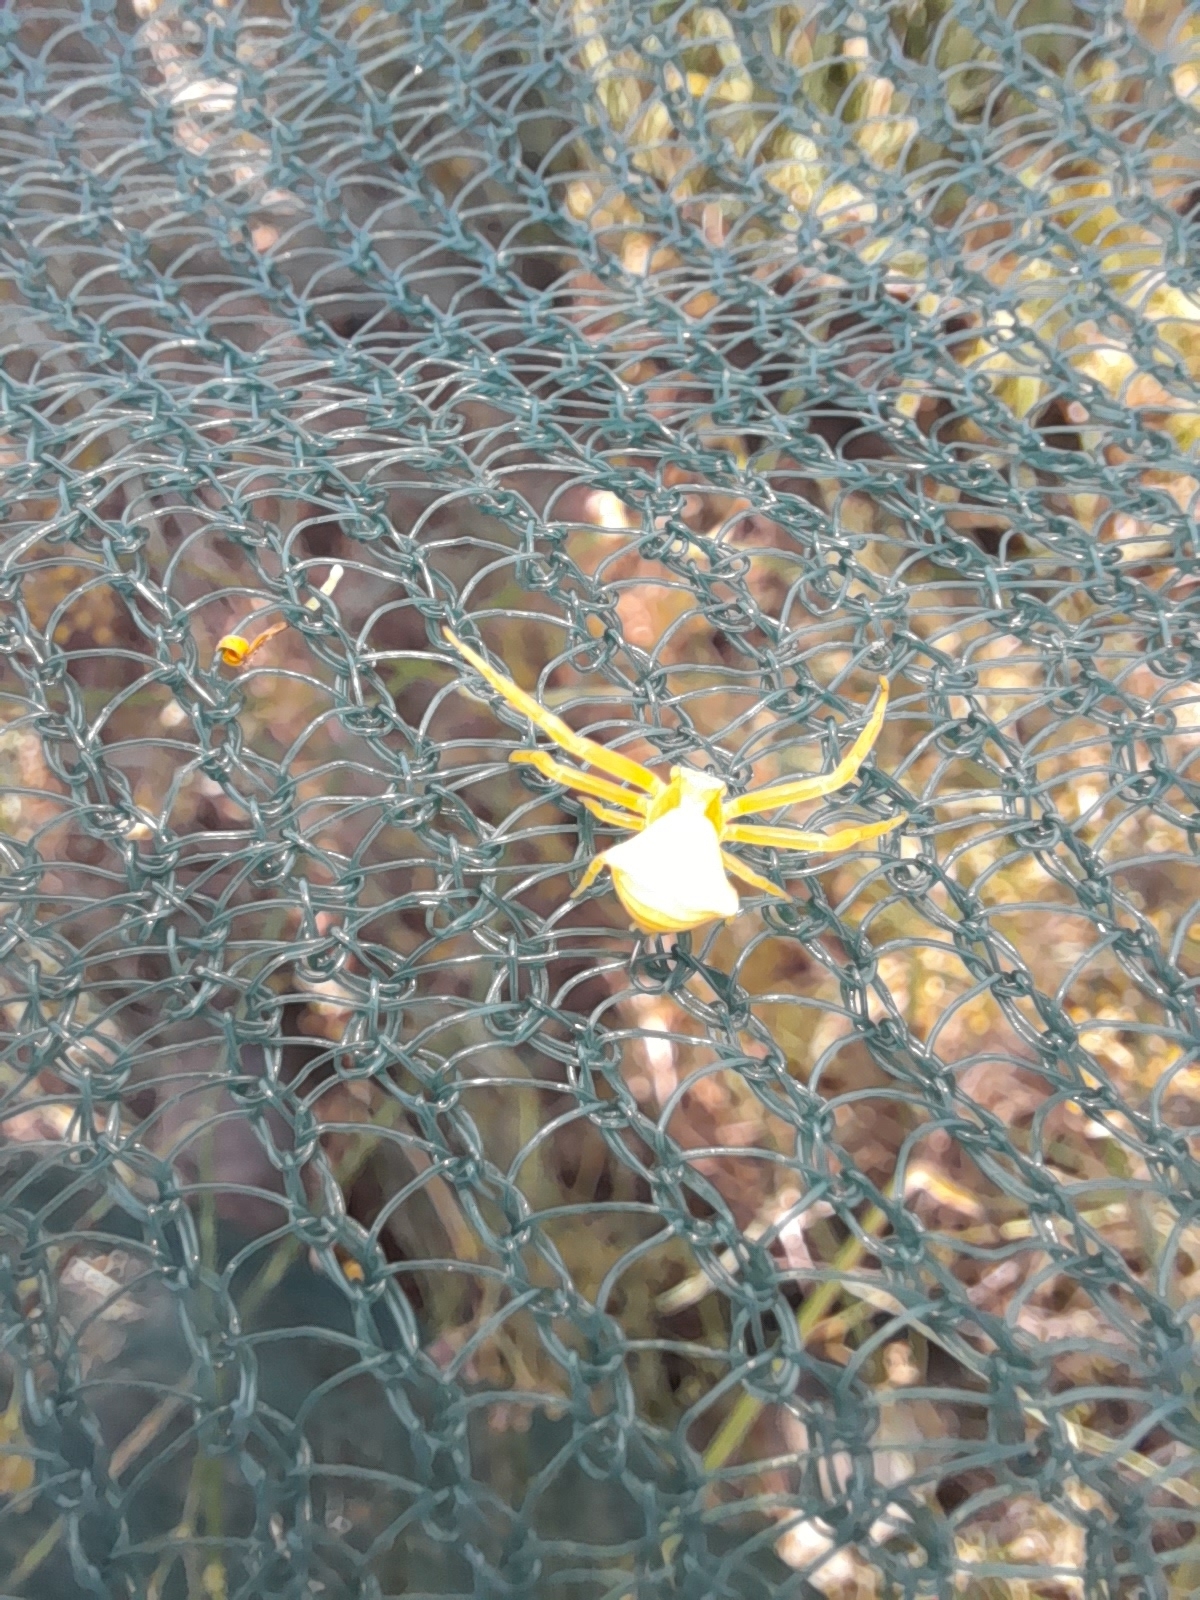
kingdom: Animalia
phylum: Arthropoda
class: Arachnida
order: Araneae
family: Thomisidae
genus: Thomisus
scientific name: Thomisus onustus
